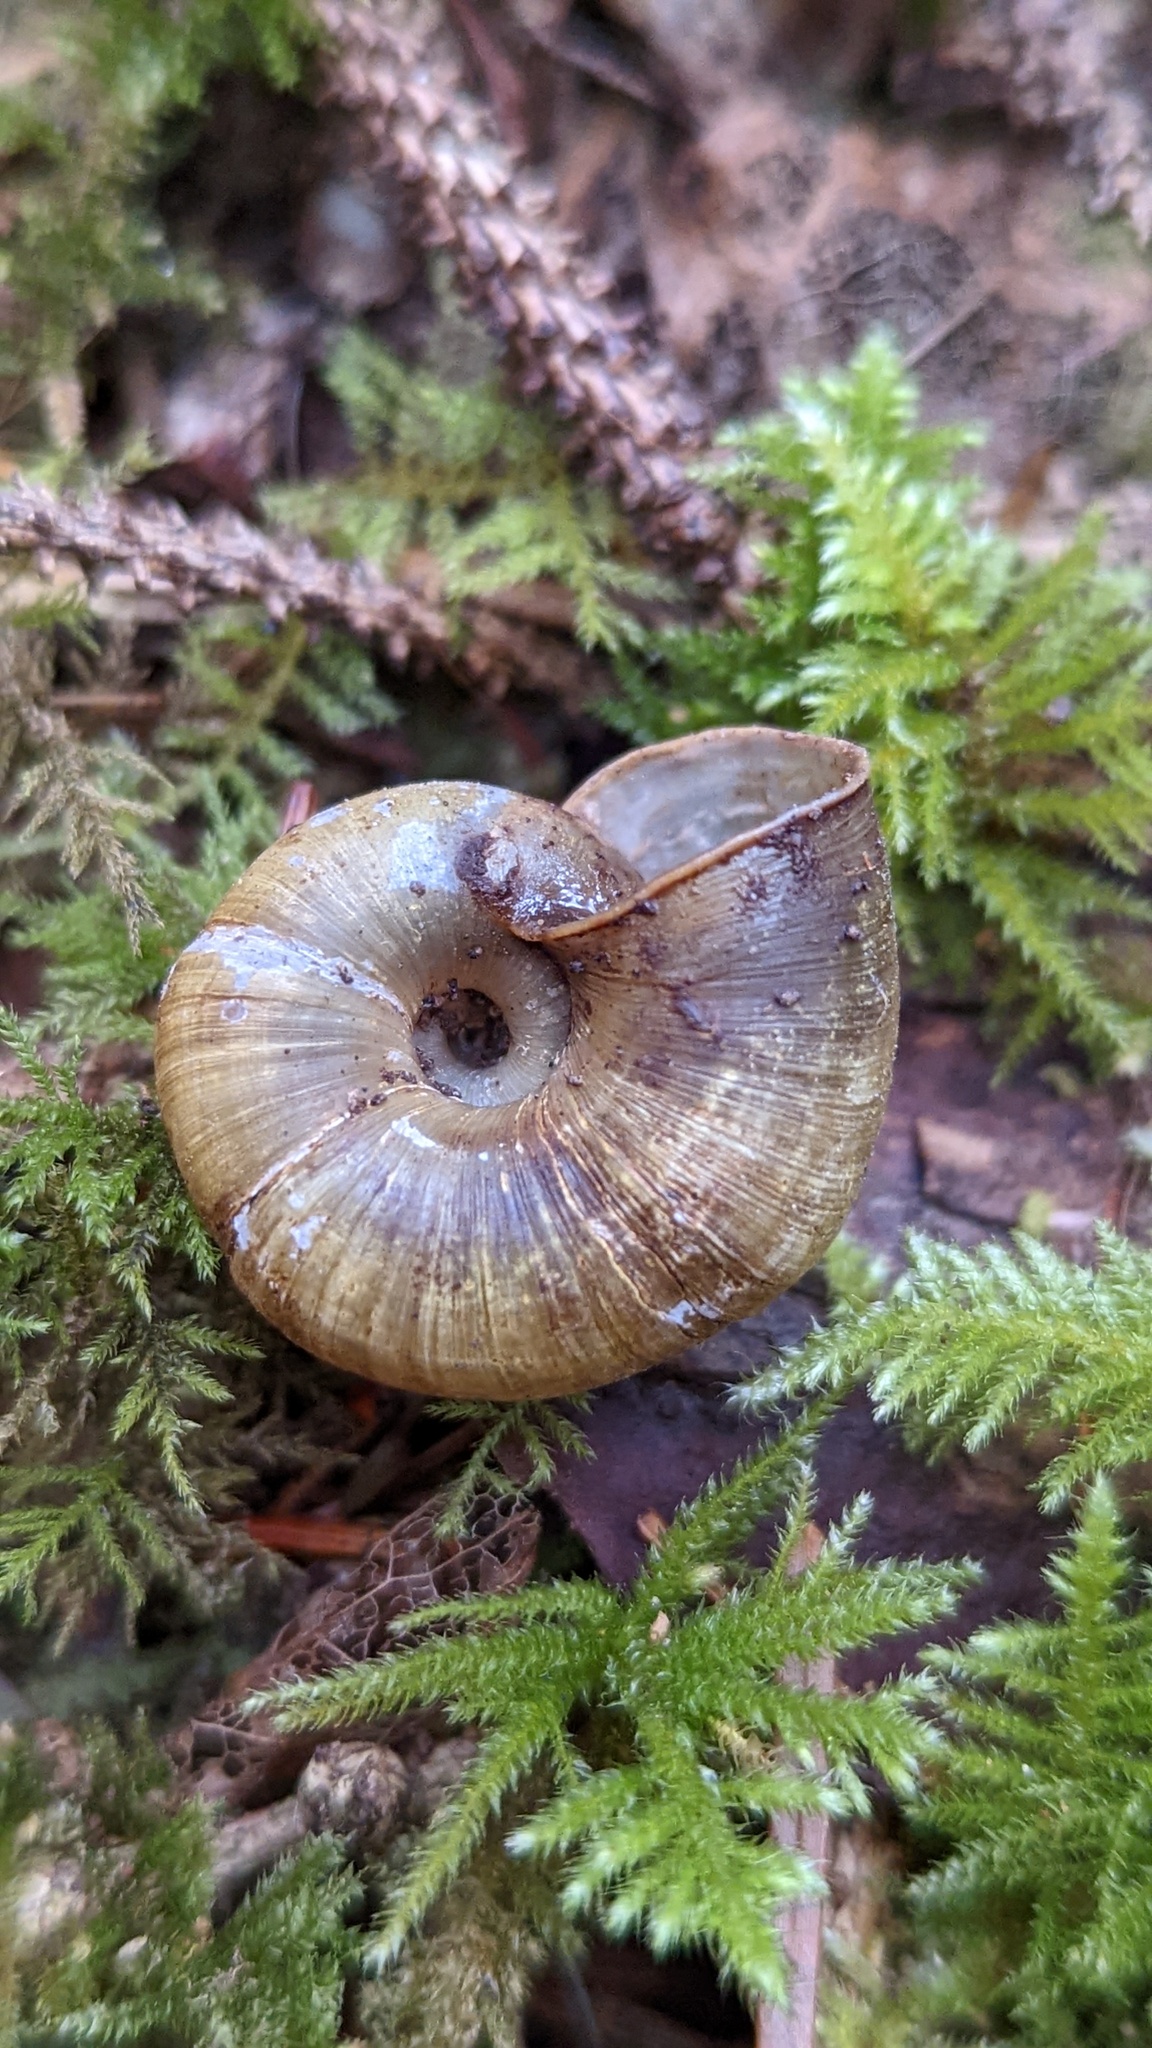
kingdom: Animalia
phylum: Mollusca
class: Gastropoda
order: Stylommatophora
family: Haplotrematidae
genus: Haplotrema
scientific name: Haplotrema vancouverense
